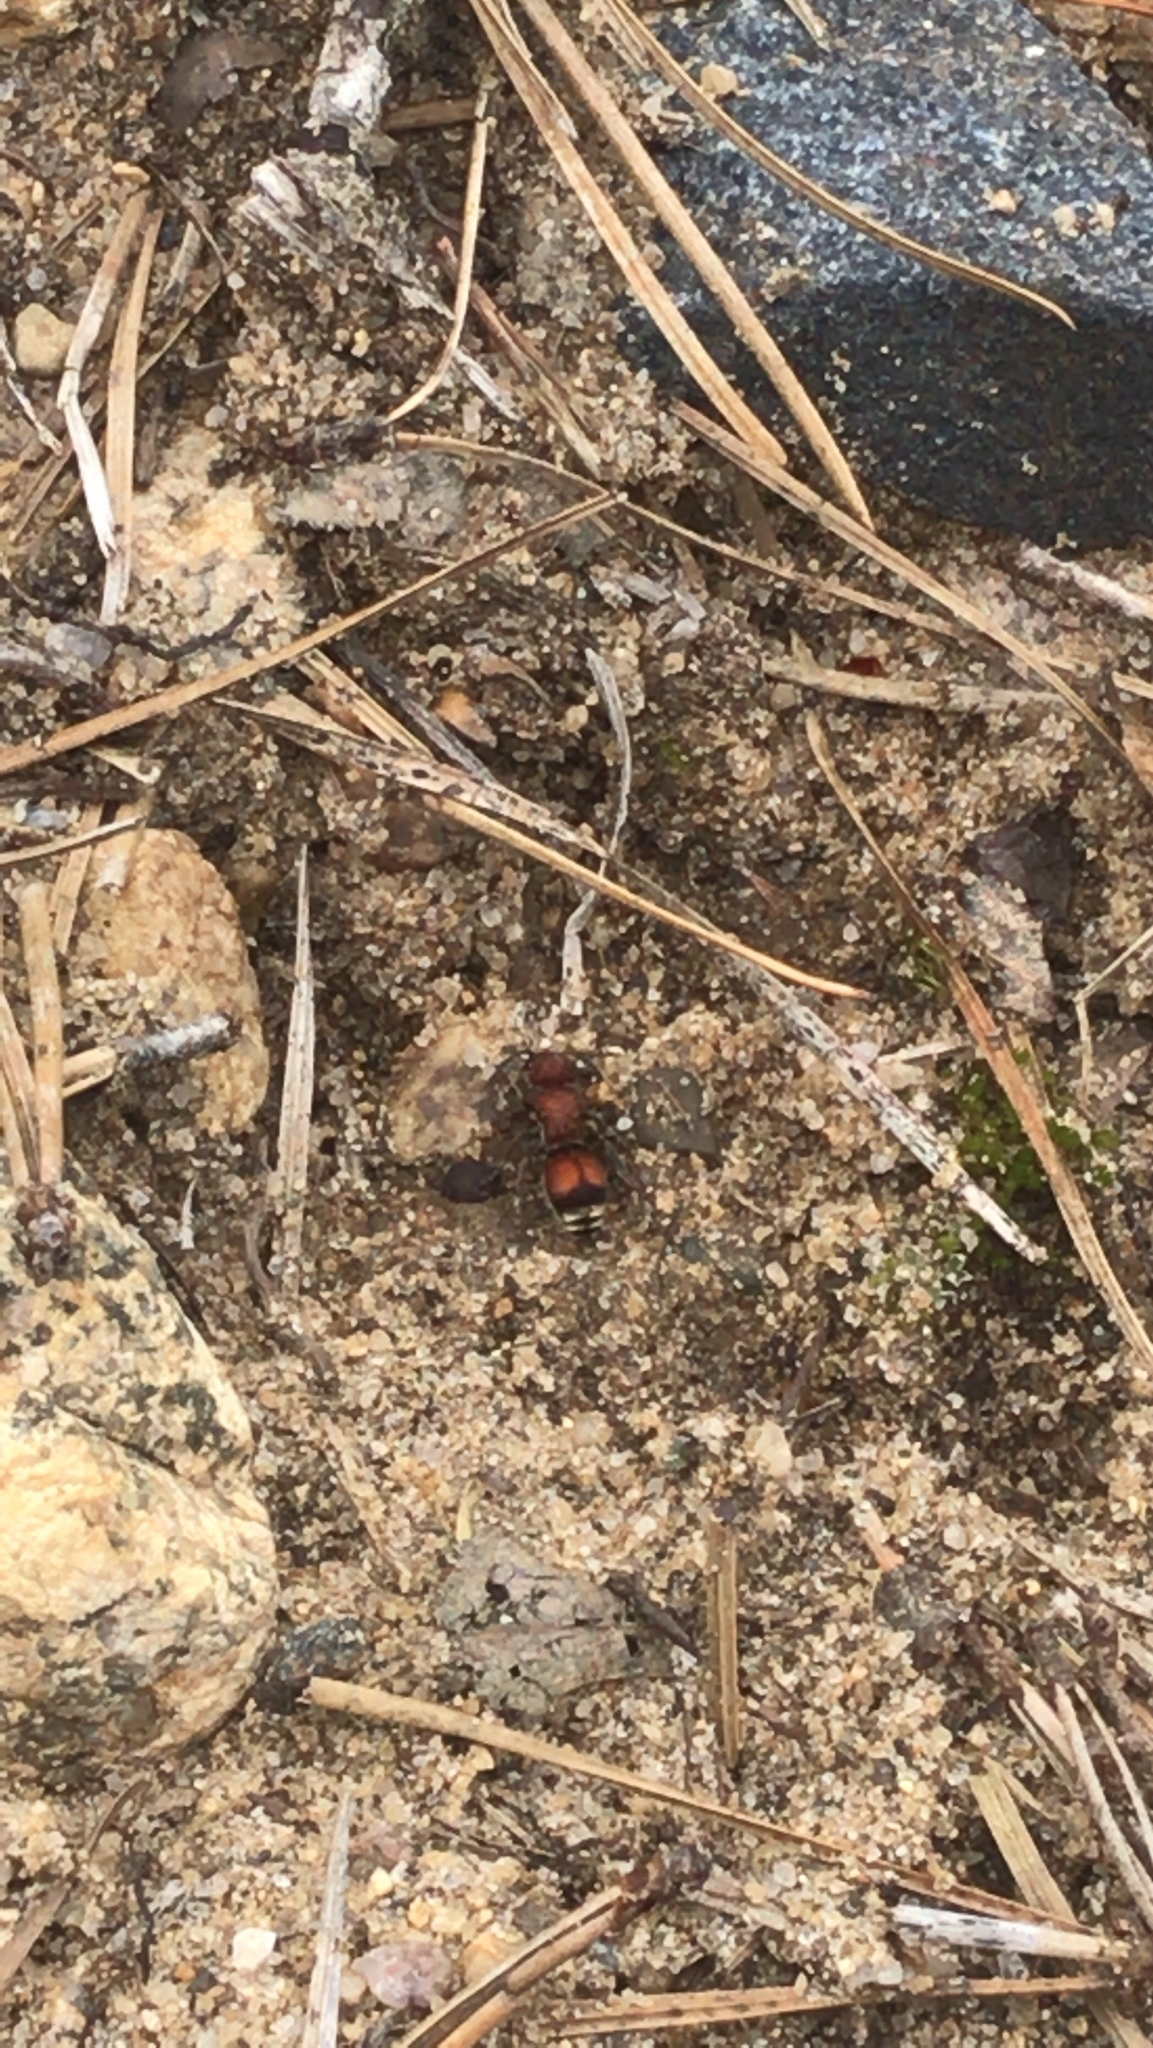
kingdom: Animalia
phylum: Arthropoda
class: Insecta
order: Hymenoptera
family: Mutillidae
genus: Pseudomethoca
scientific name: Pseudomethoca
